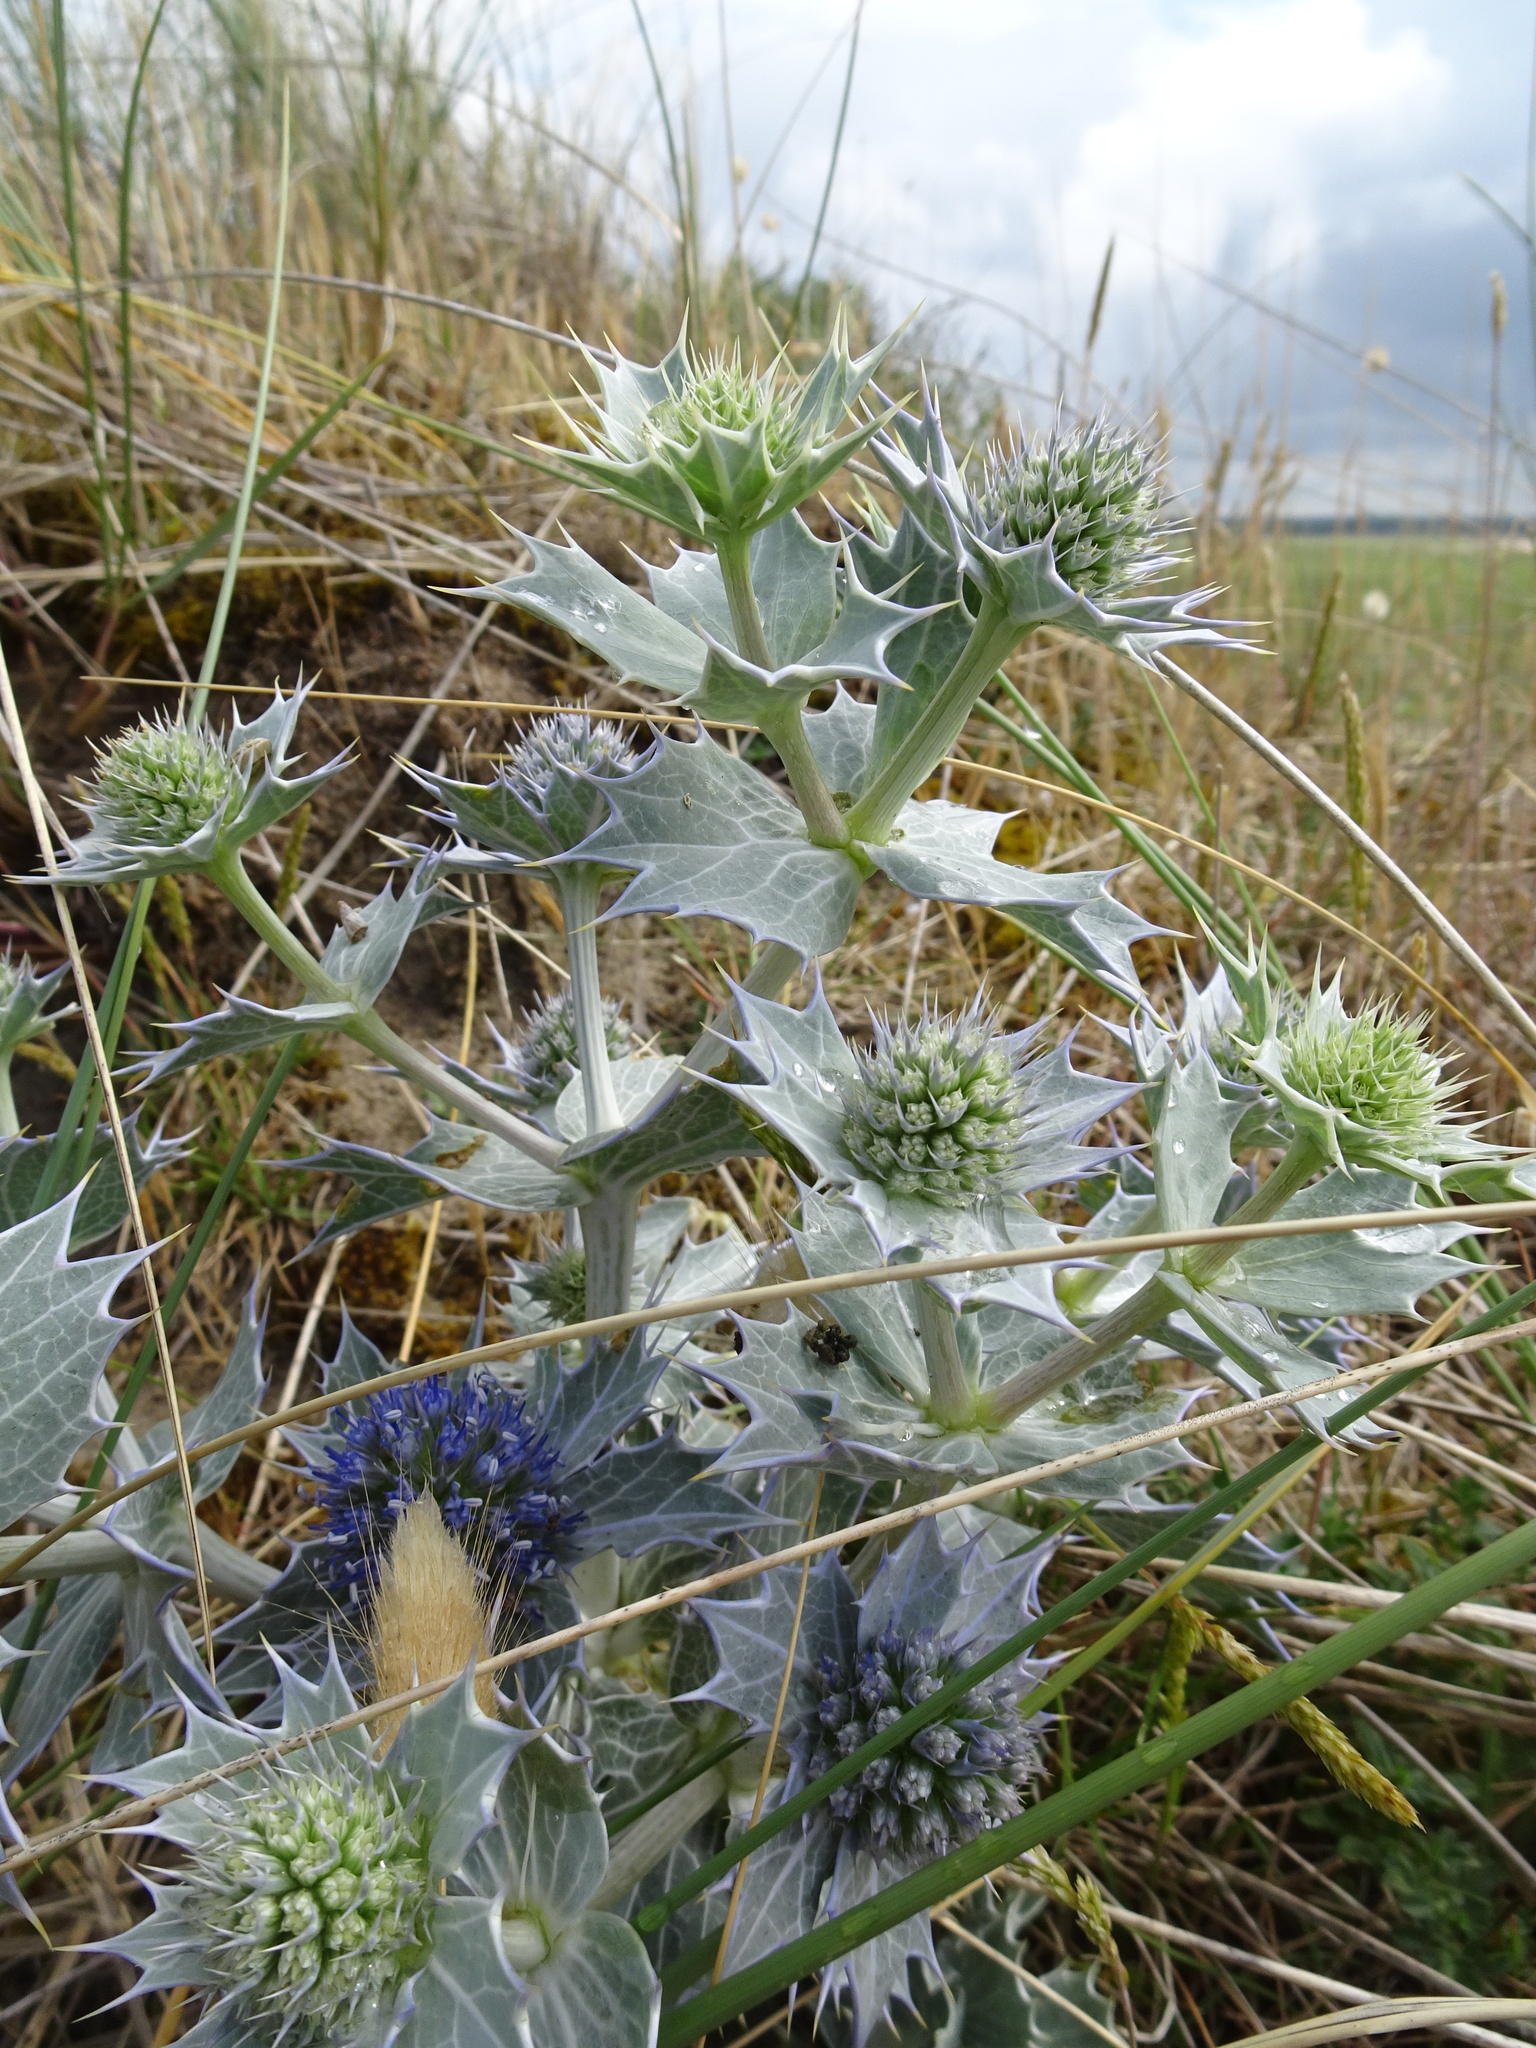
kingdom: Plantae
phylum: Tracheophyta
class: Magnoliopsida
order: Apiales
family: Apiaceae
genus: Eryngium
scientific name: Eryngium maritimum
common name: Sea-holly
